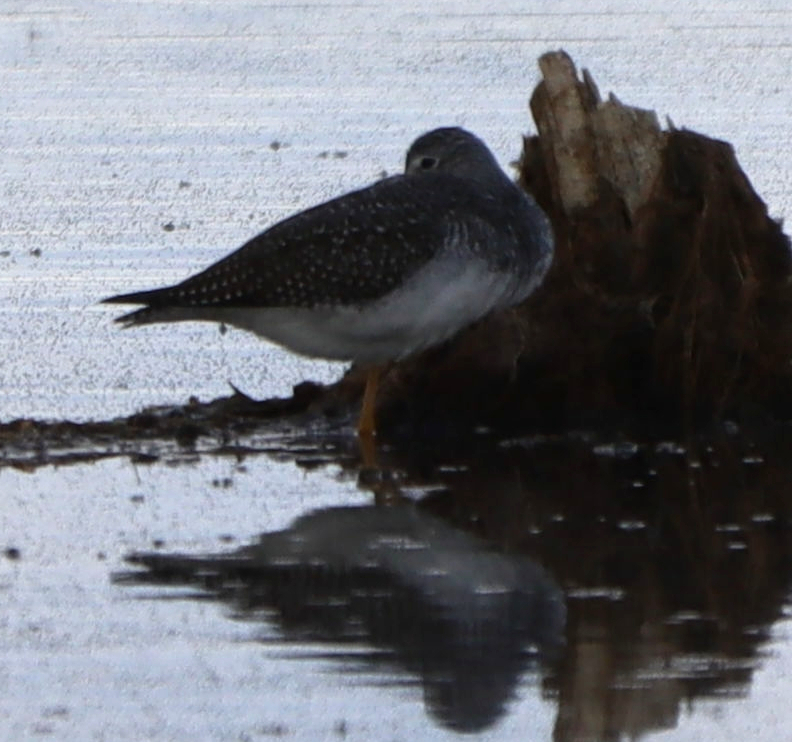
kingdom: Animalia
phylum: Chordata
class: Aves
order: Charadriiformes
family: Scolopacidae
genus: Tringa
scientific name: Tringa melanoleuca
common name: Greater yellowlegs
